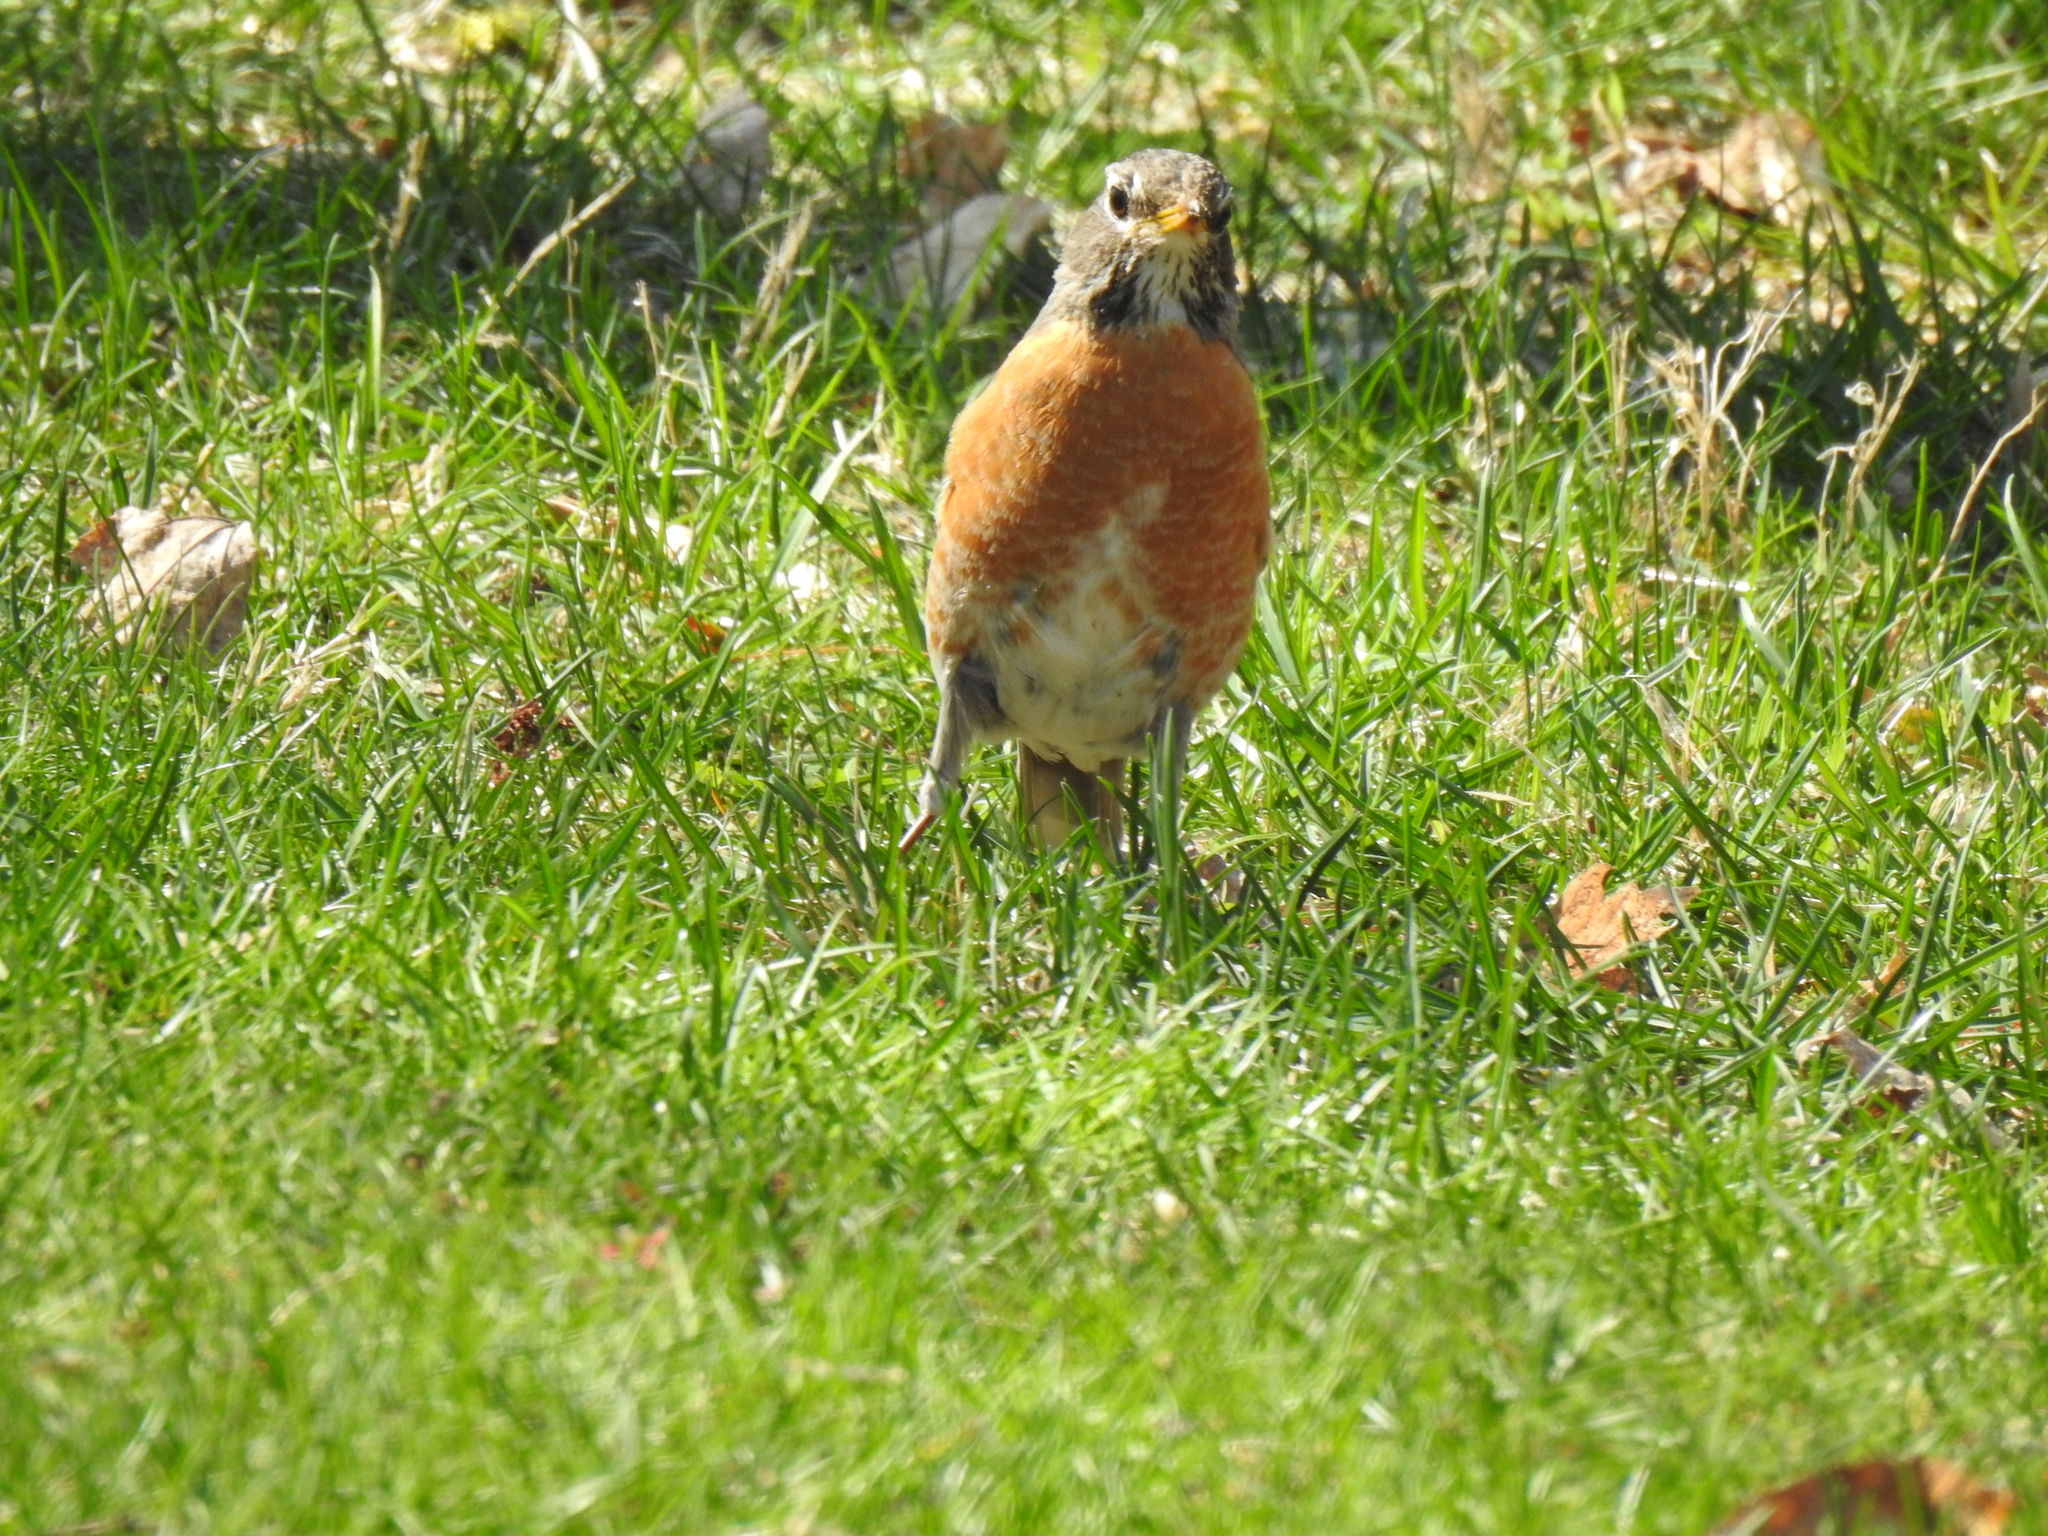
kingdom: Animalia
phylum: Chordata
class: Aves
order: Passeriformes
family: Turdidae
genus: Turdus
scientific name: Turdus migratorius
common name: American robin
